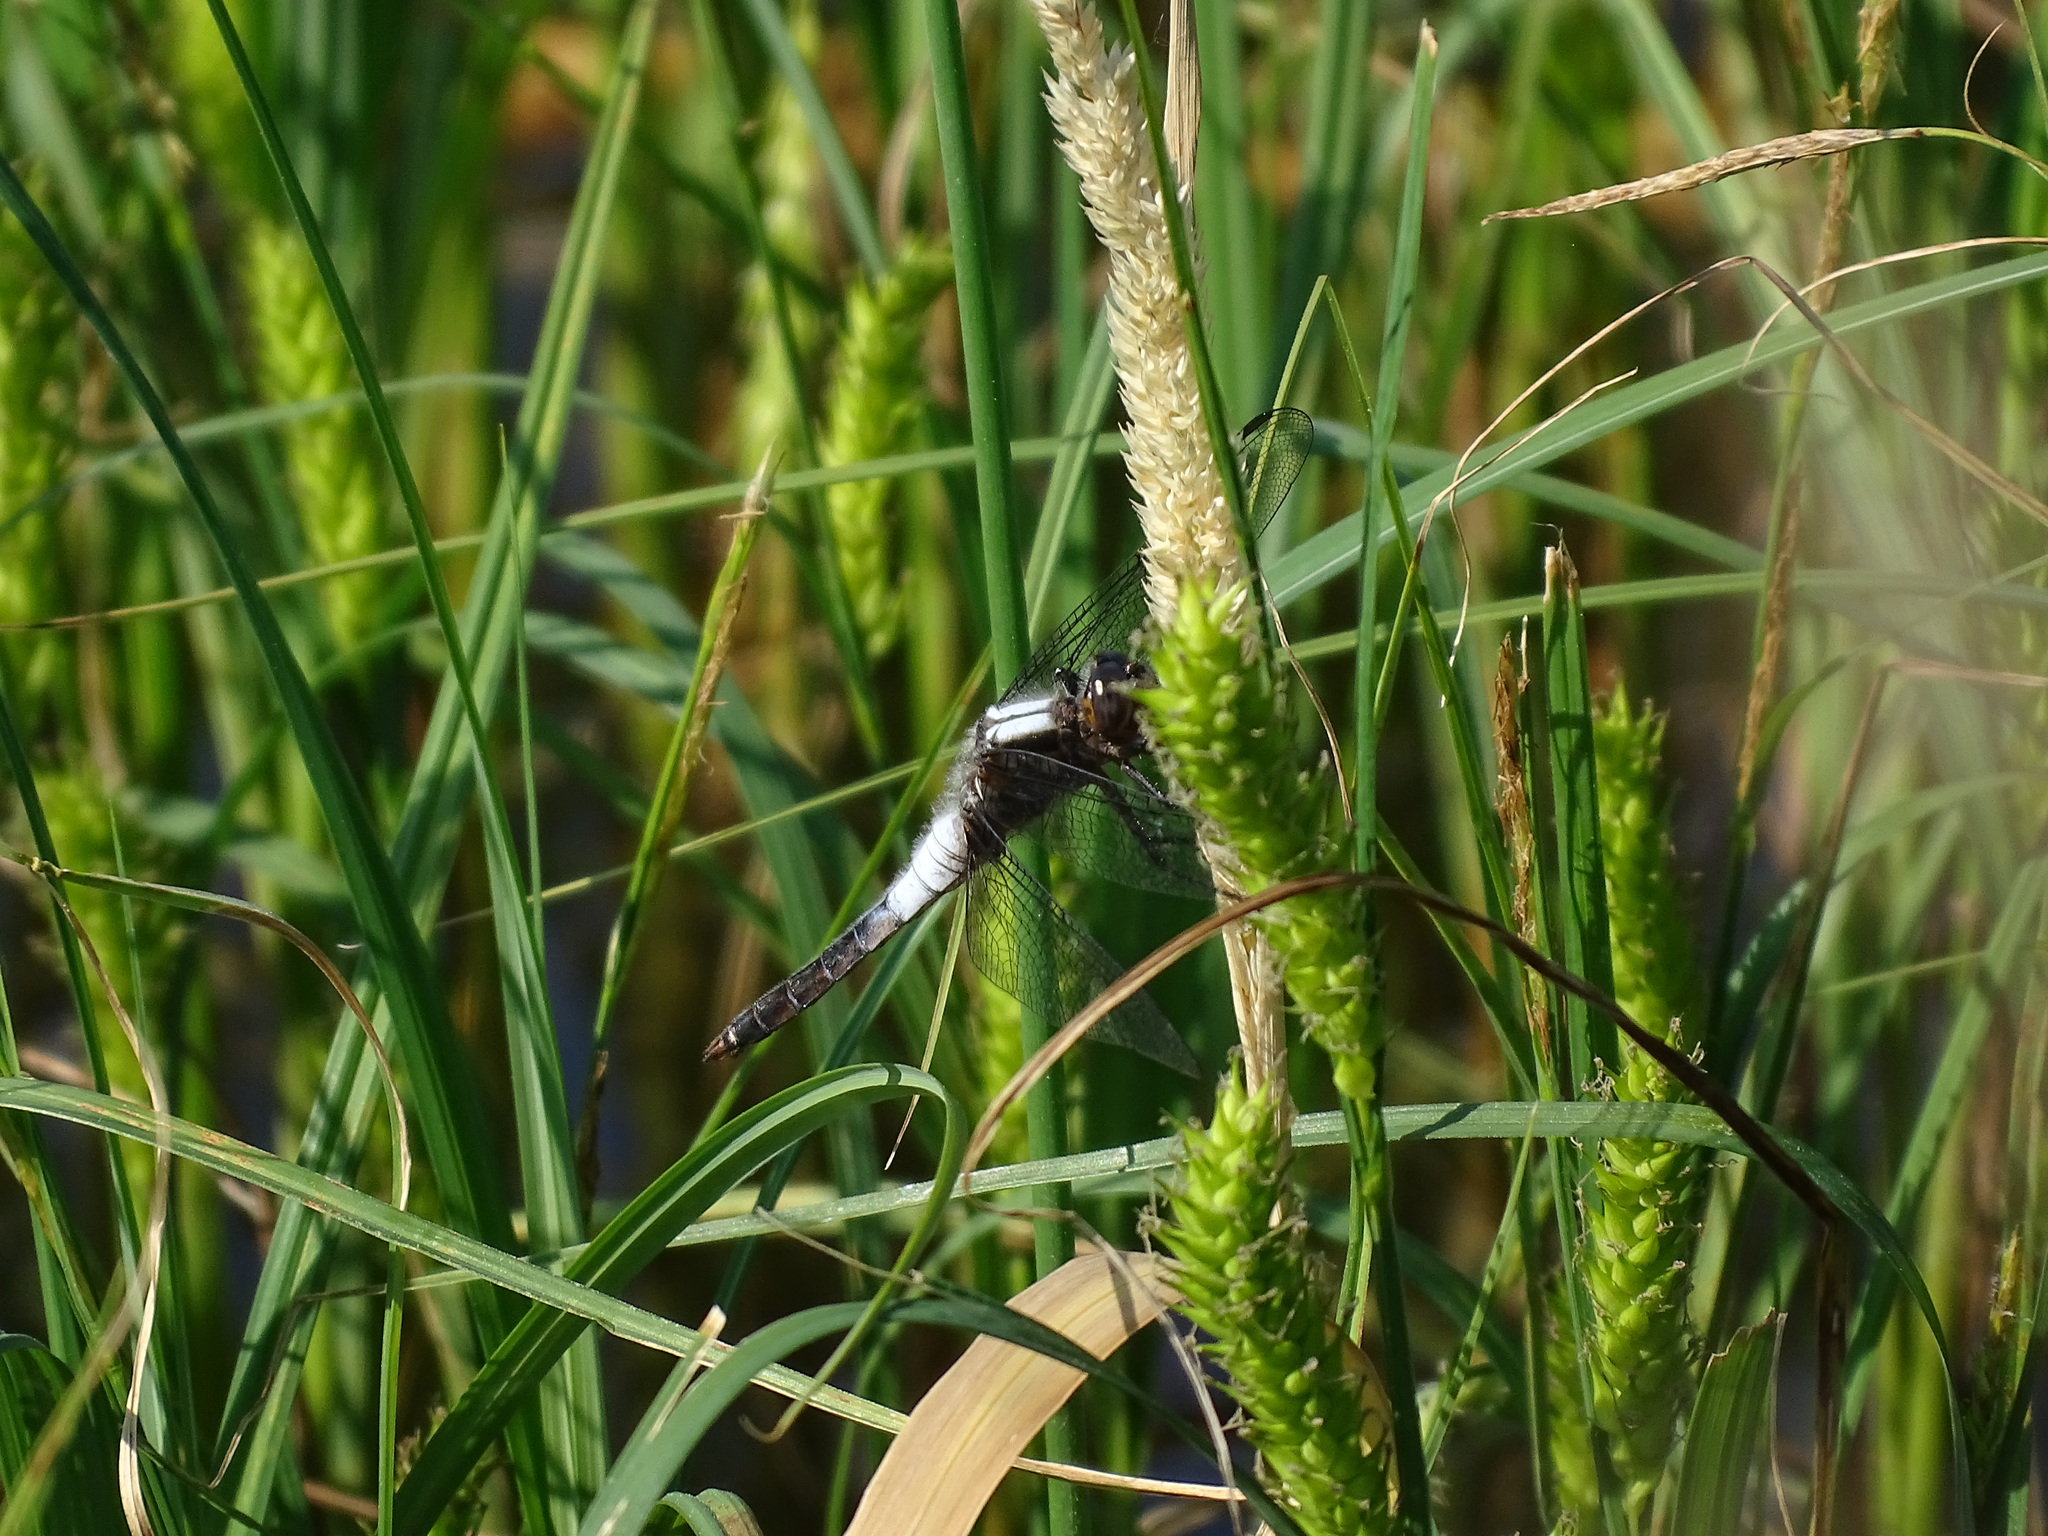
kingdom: Animalia
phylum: Arthropoda
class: Insecta
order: Odonata
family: Libellulidae
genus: Ladona
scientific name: Ladona julia
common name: Chalk-fronted corporal
